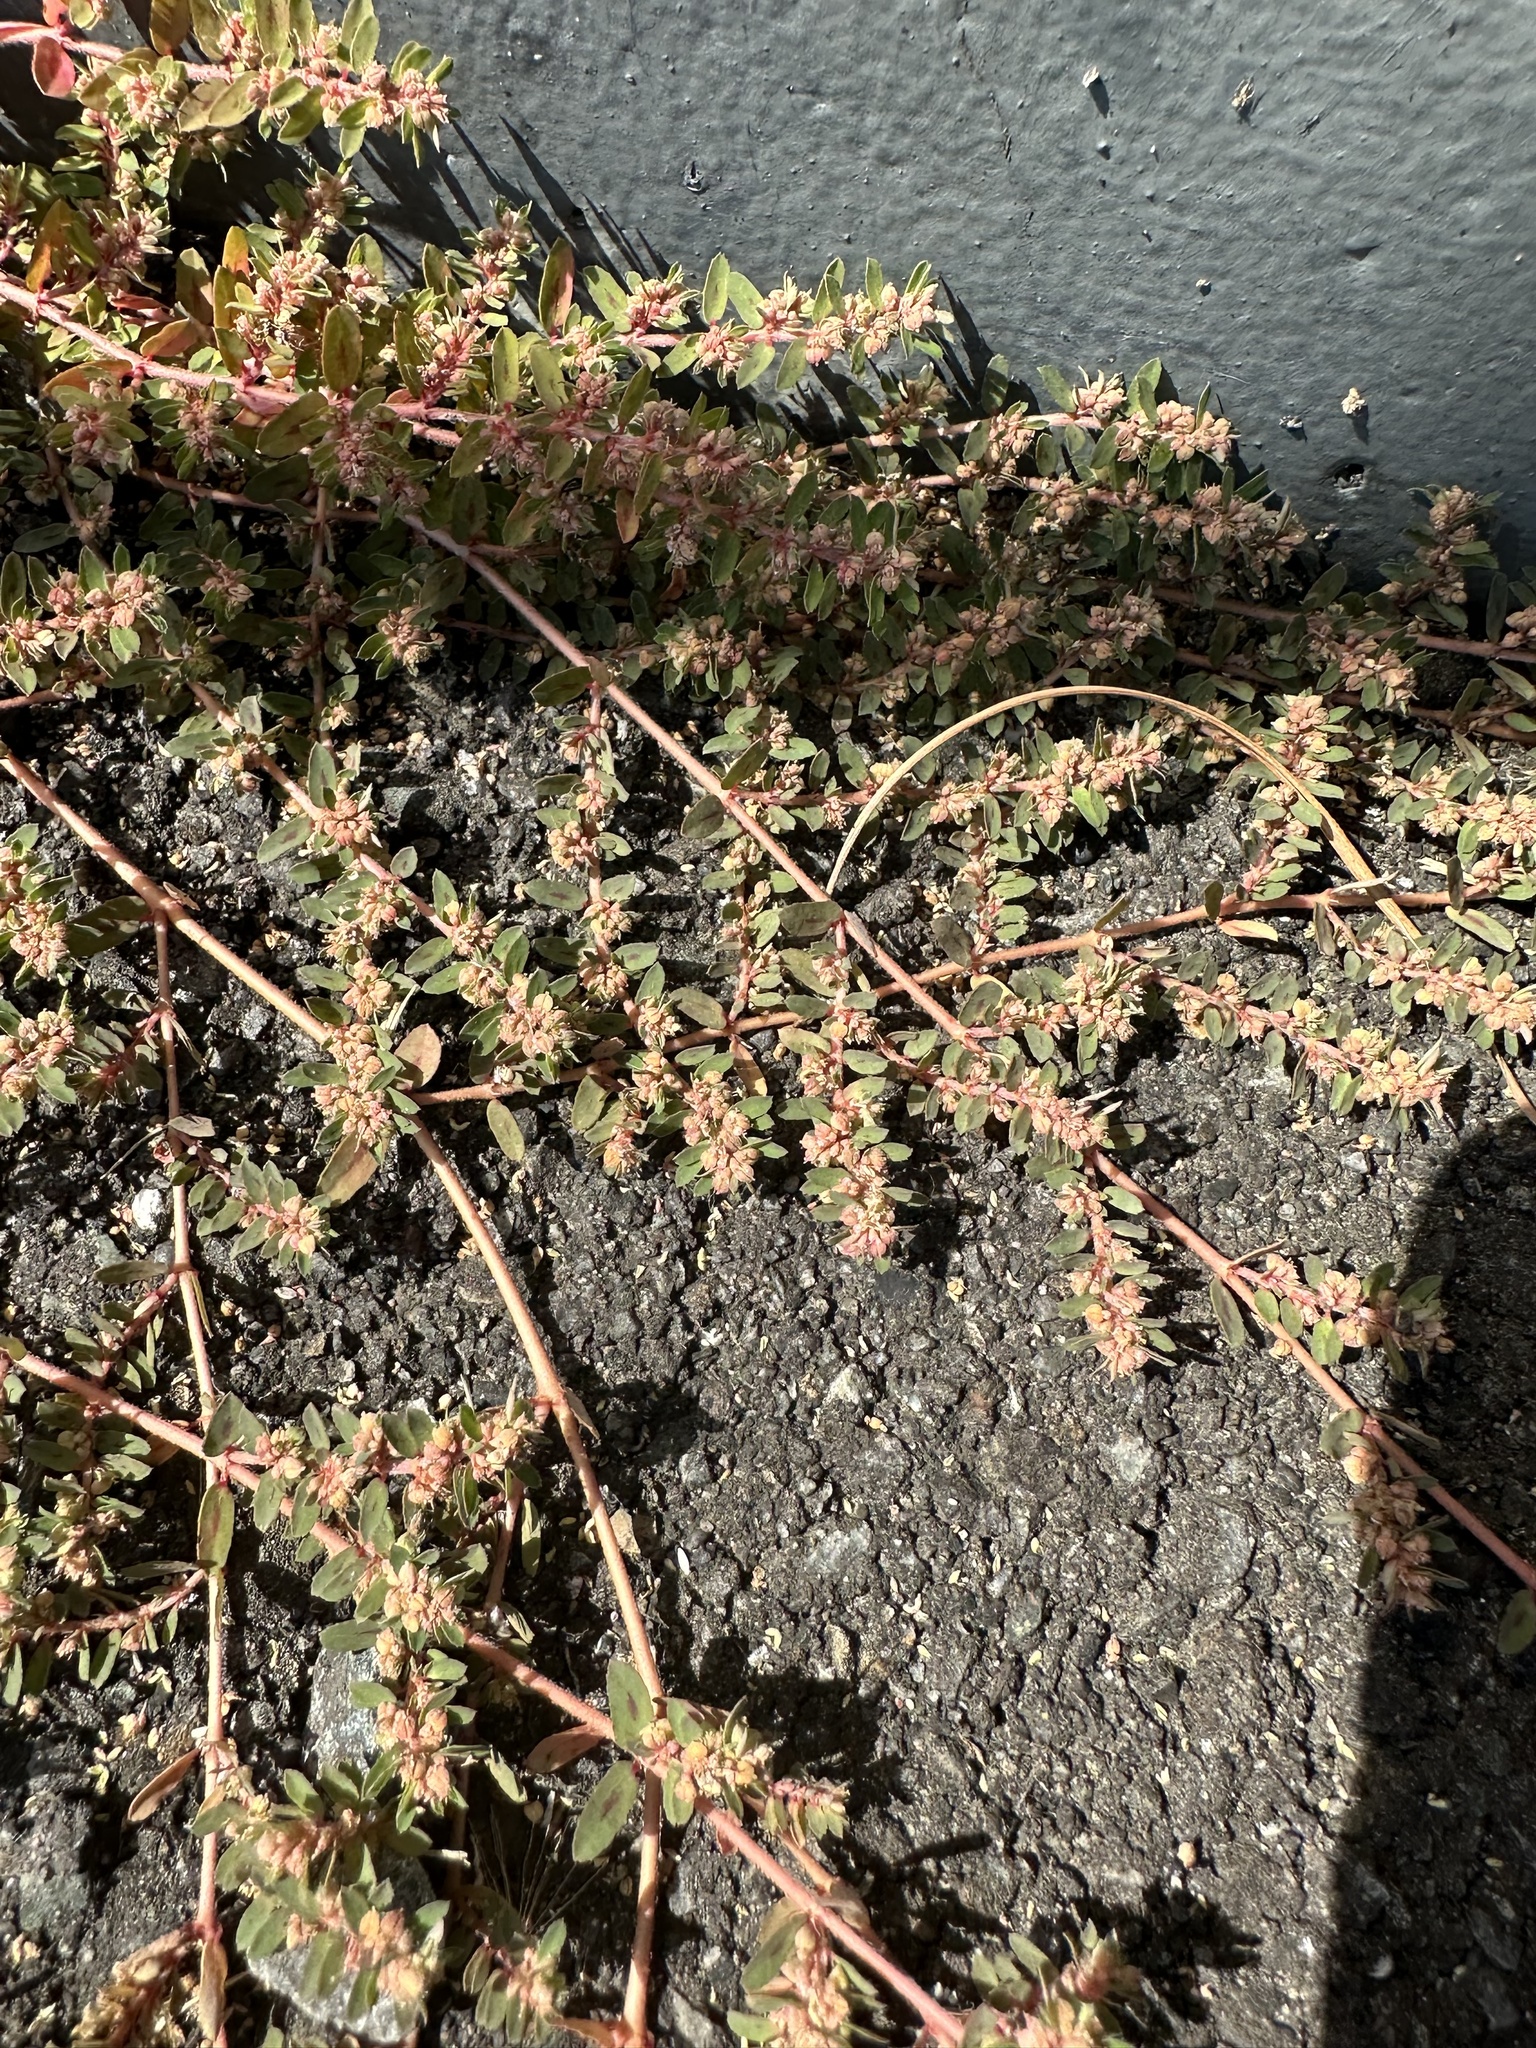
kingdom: Plantae
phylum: Tracheophyta
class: Magnoliopsida
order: Malpighiales
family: Euphorbiaceae
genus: Euphorbia
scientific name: Euphorbia maculata
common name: Spotted spurge
